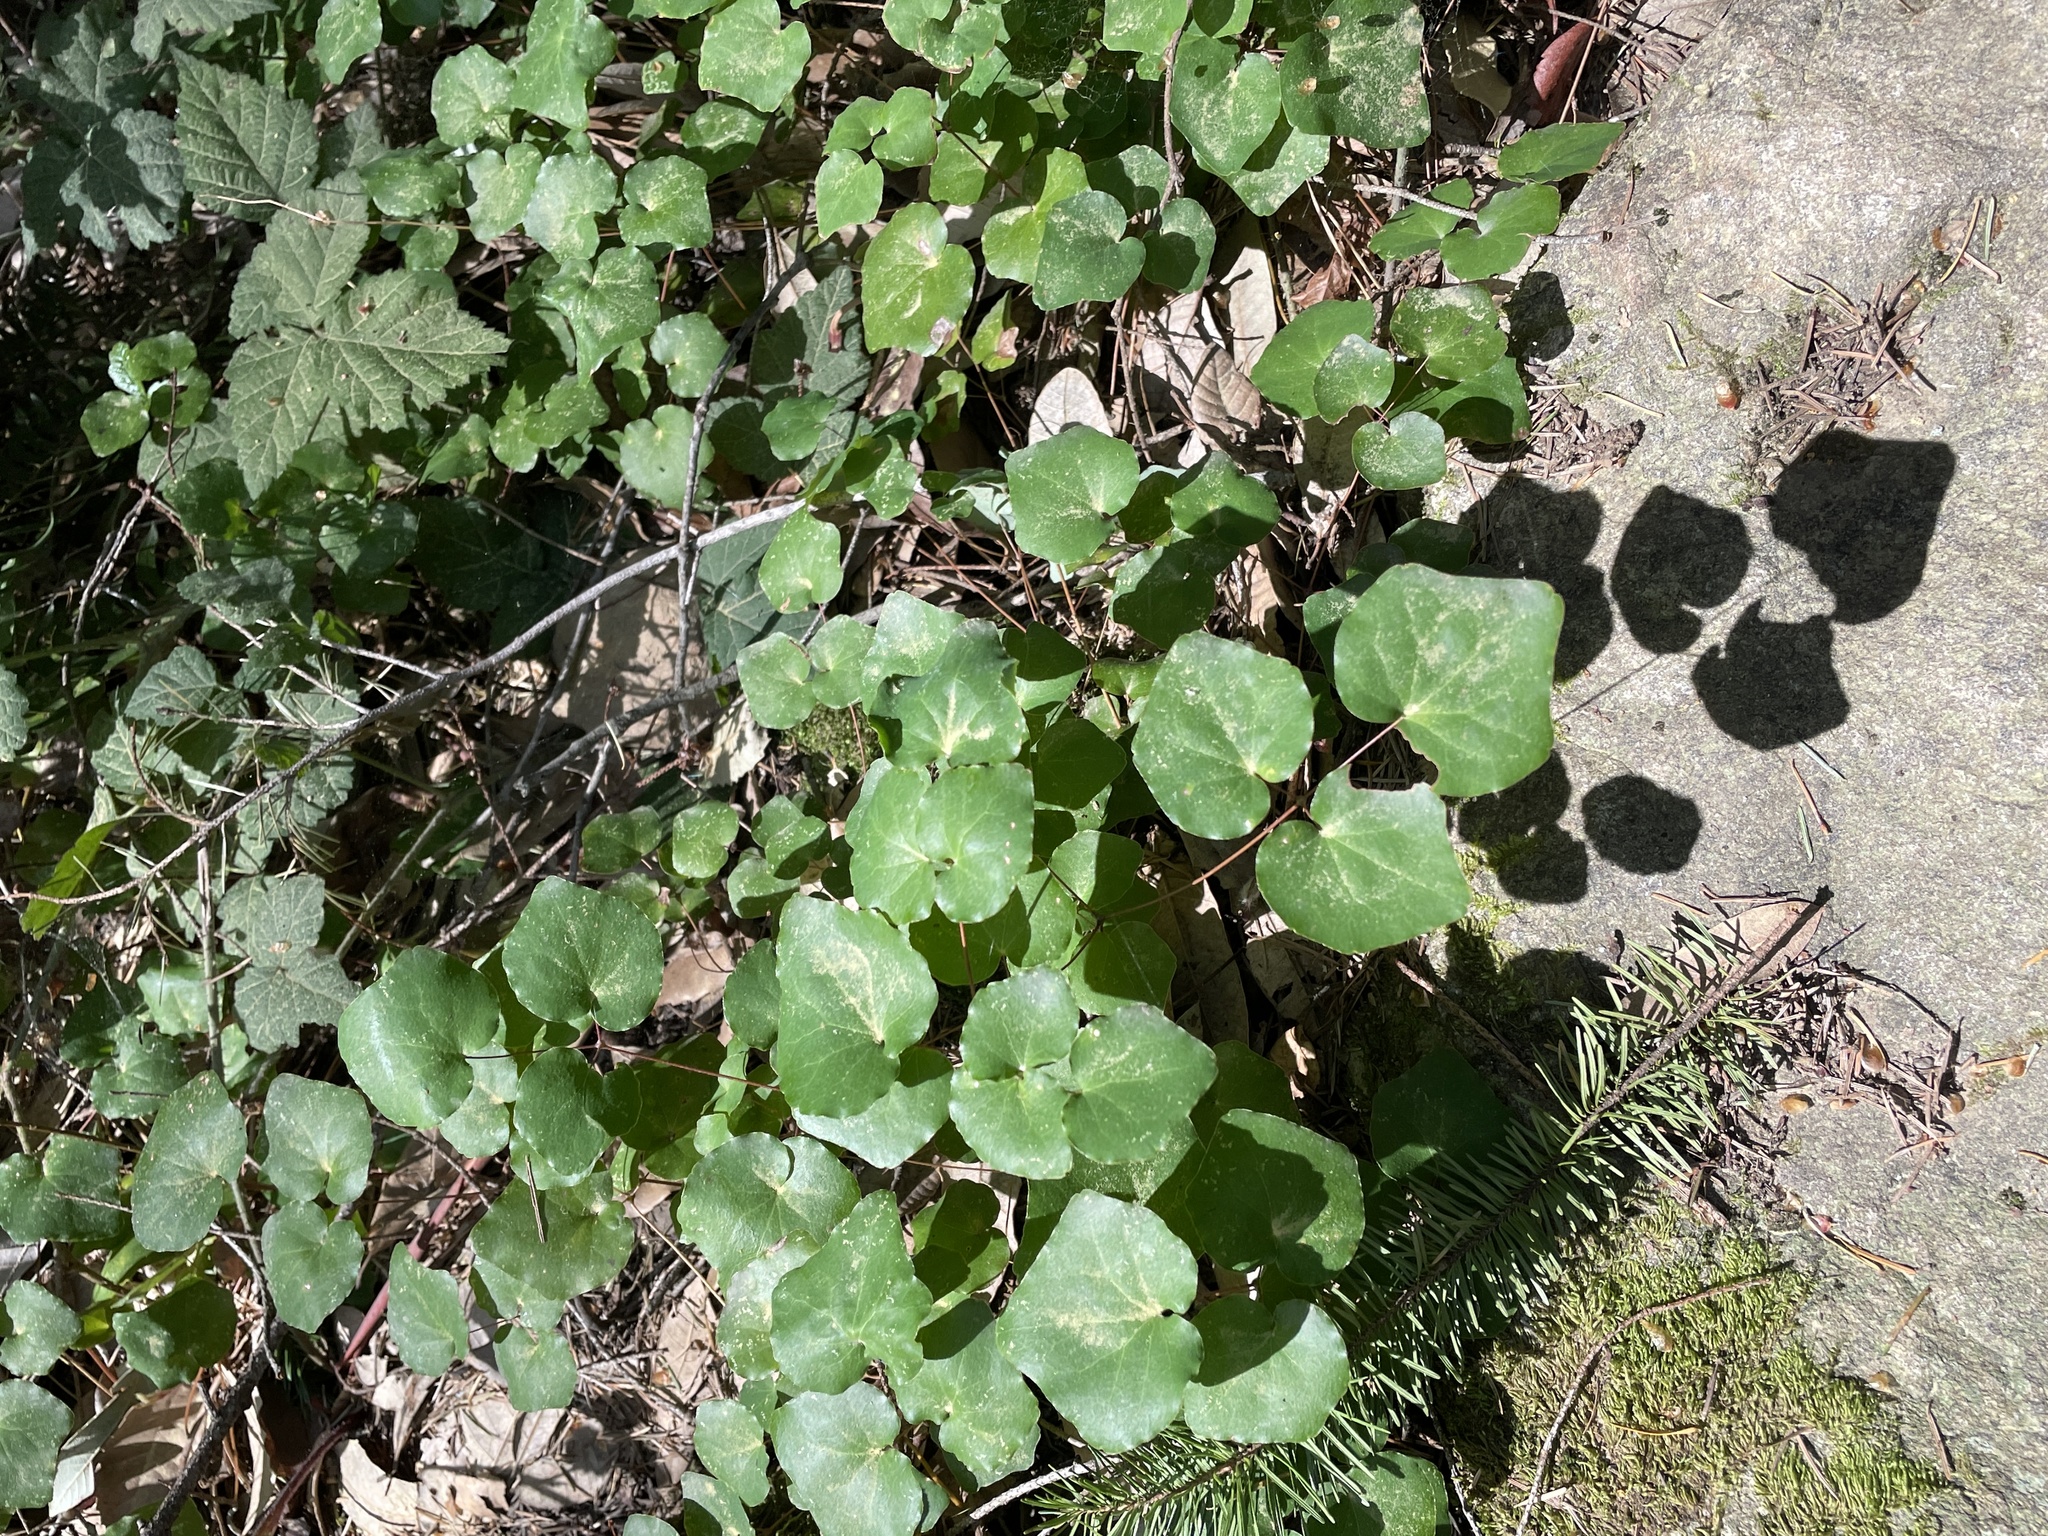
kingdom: Plantae
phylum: Tracheophyta
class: Magnoliopsida
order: Ranunculales
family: Berberidaceae
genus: Vancouveria
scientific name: Vancouveria planipetala
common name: Redwood-ivy
